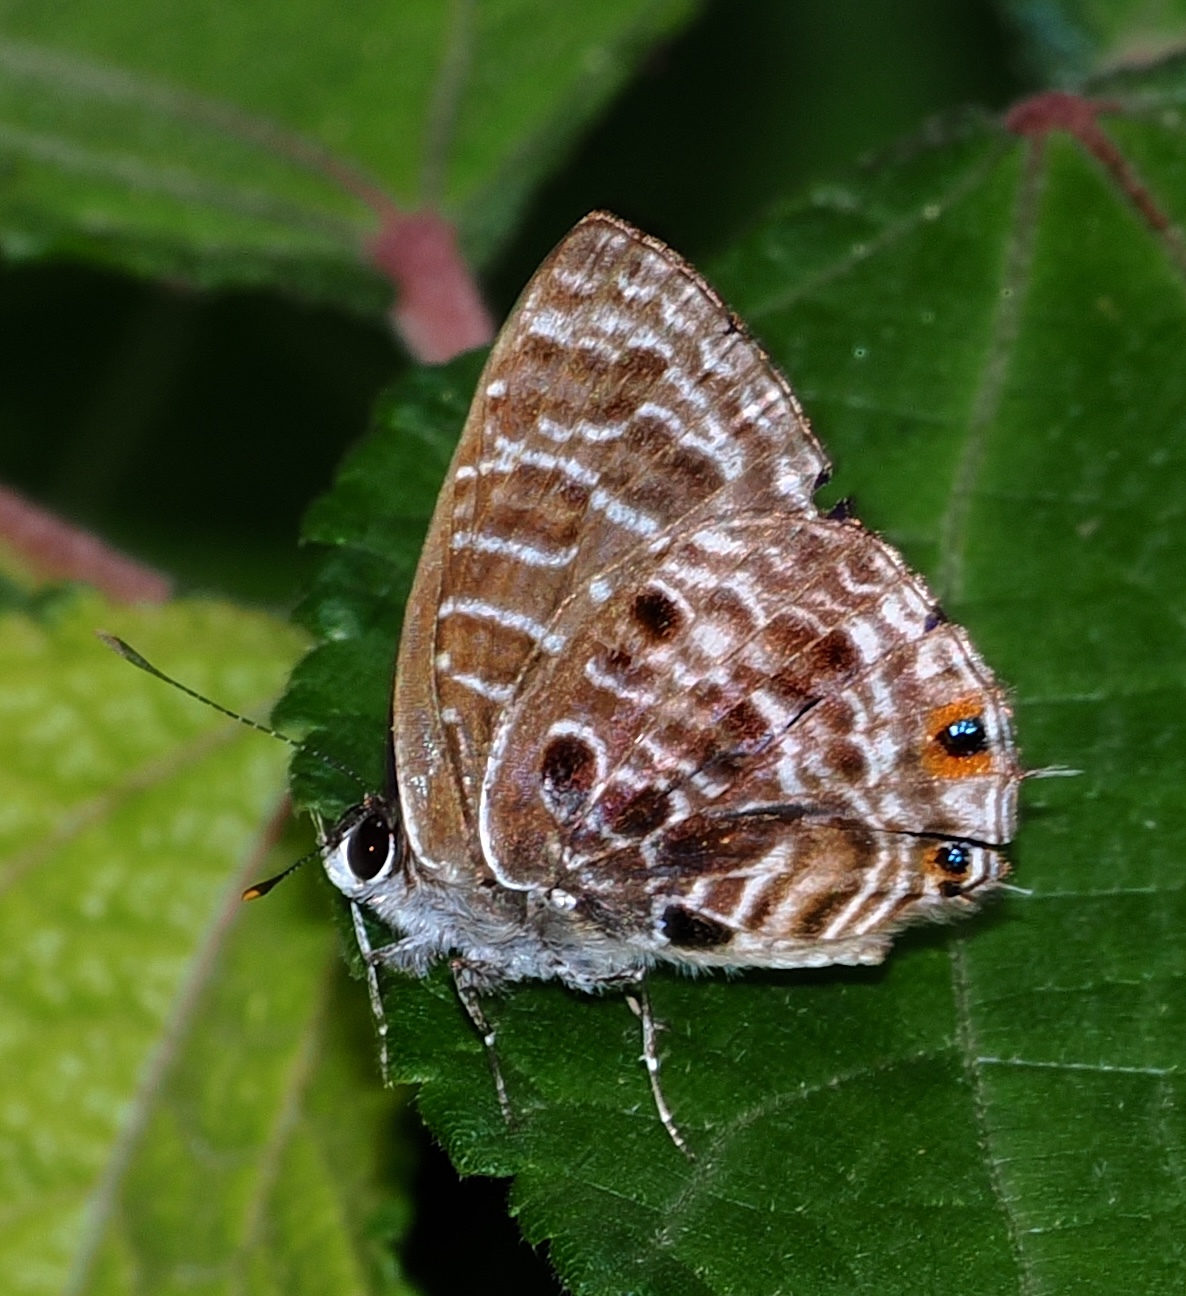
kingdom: Animalia
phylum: Arthropoda
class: Insecta
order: Lepidoptera
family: Lycaenidae
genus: Anthene
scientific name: Anthene larydas
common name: Forest hairtail
